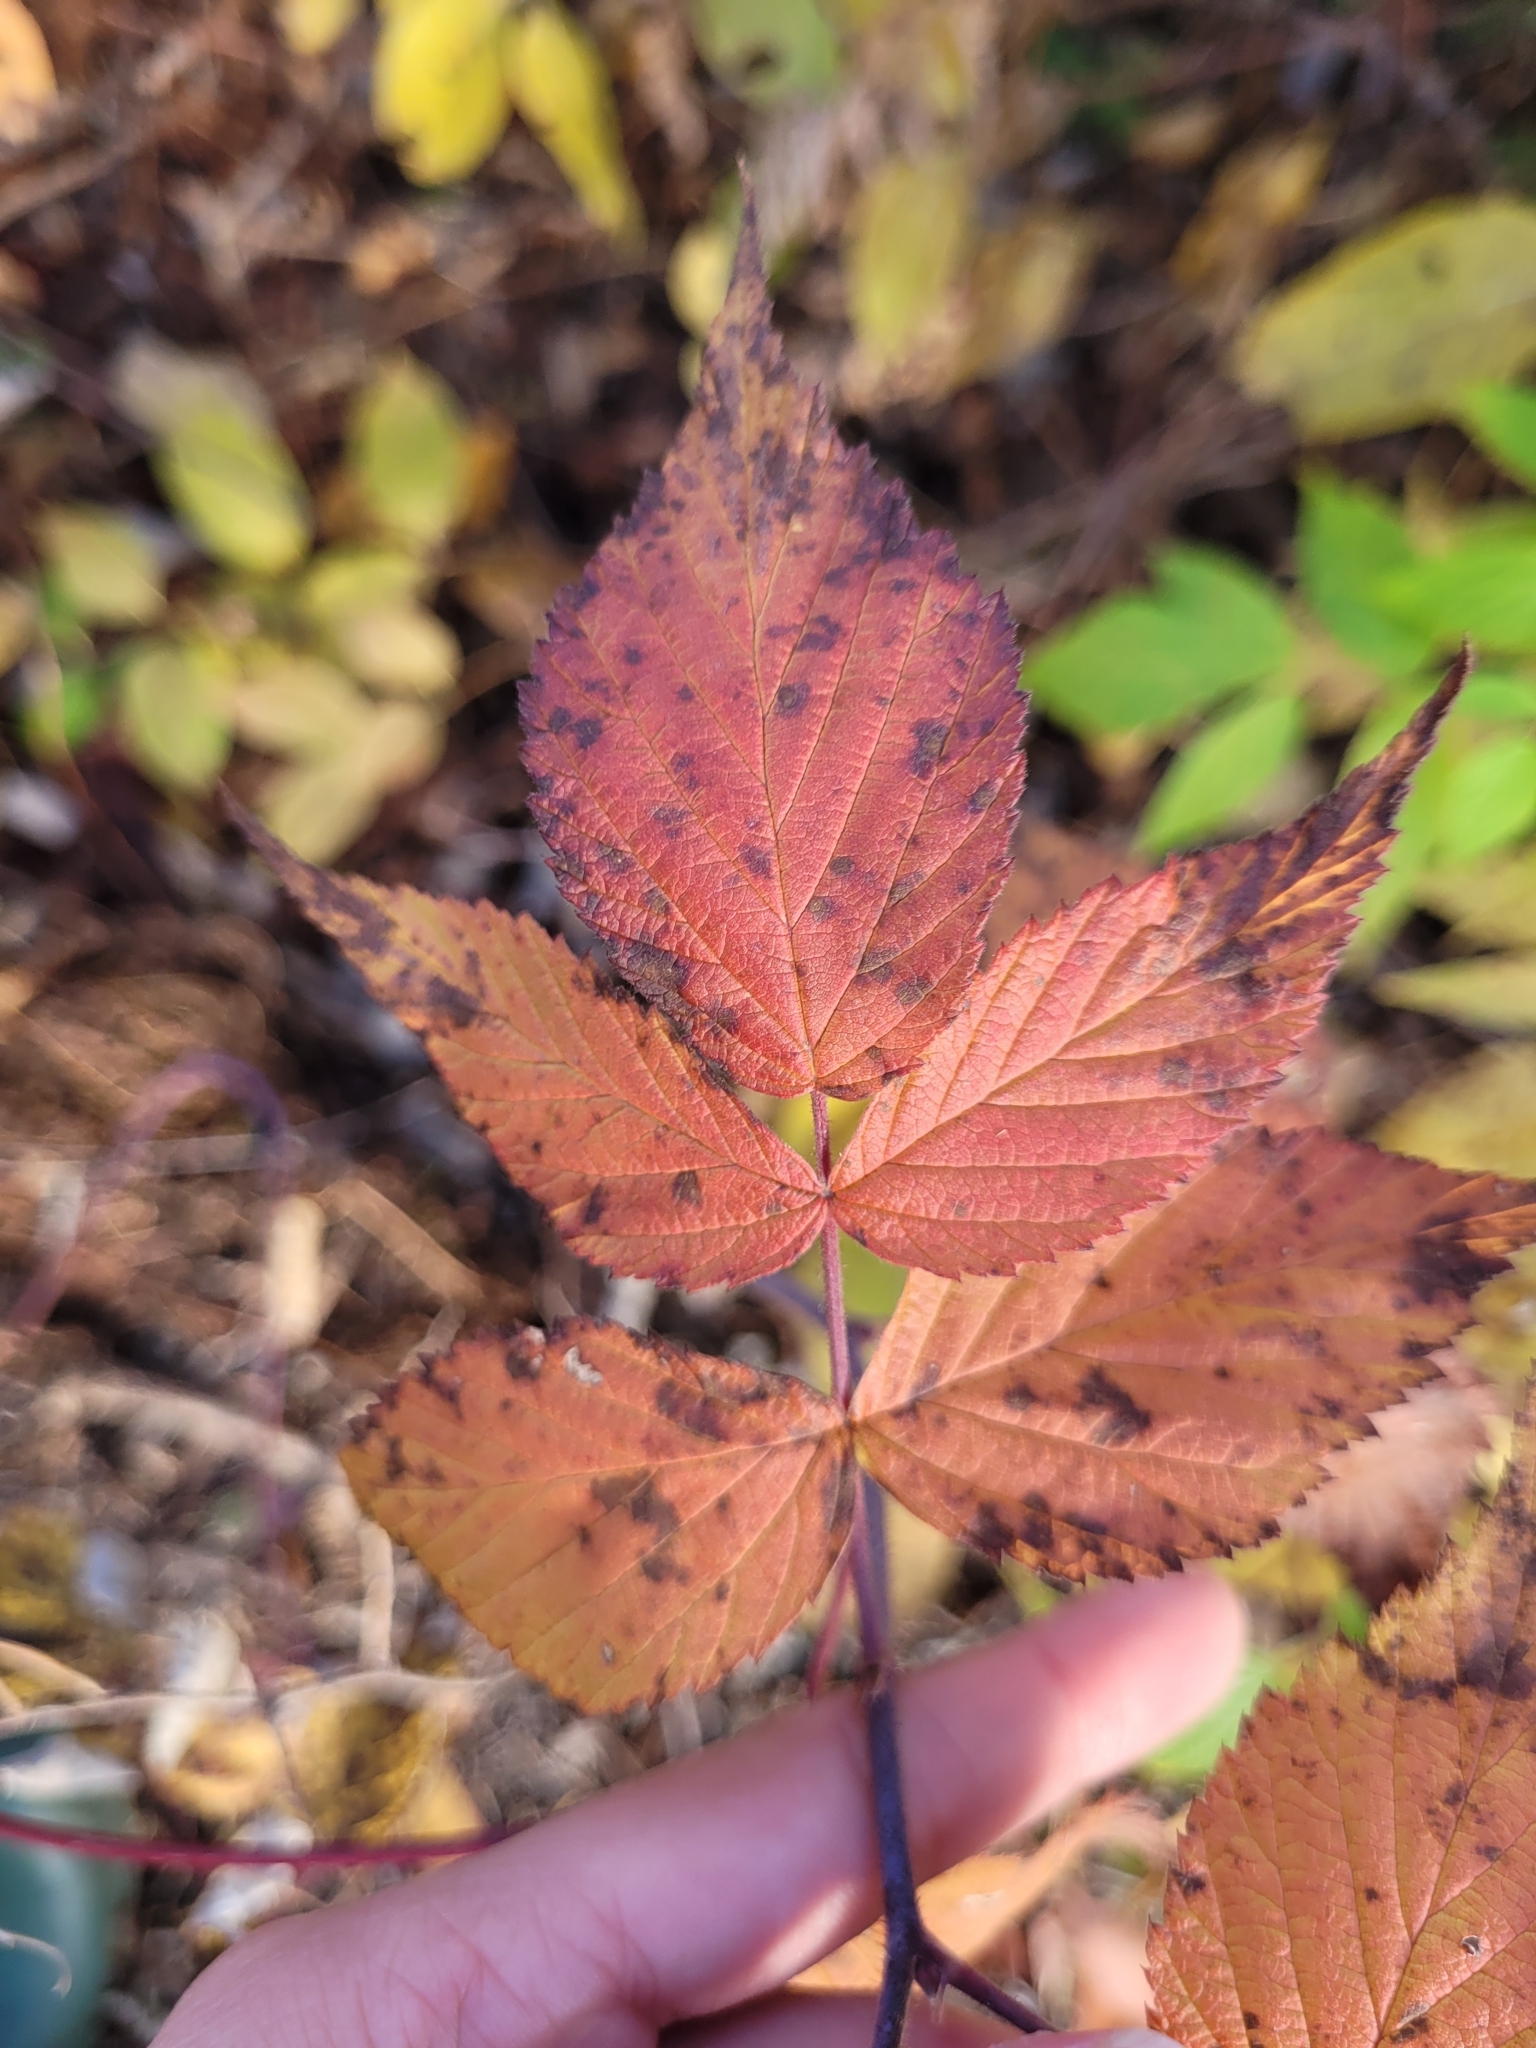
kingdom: Plantae
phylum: Tracheophyta
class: Magnoliopsida
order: Rosales
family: Rosaceae
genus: Rubus
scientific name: Rubus idaeus
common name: Raspberry
